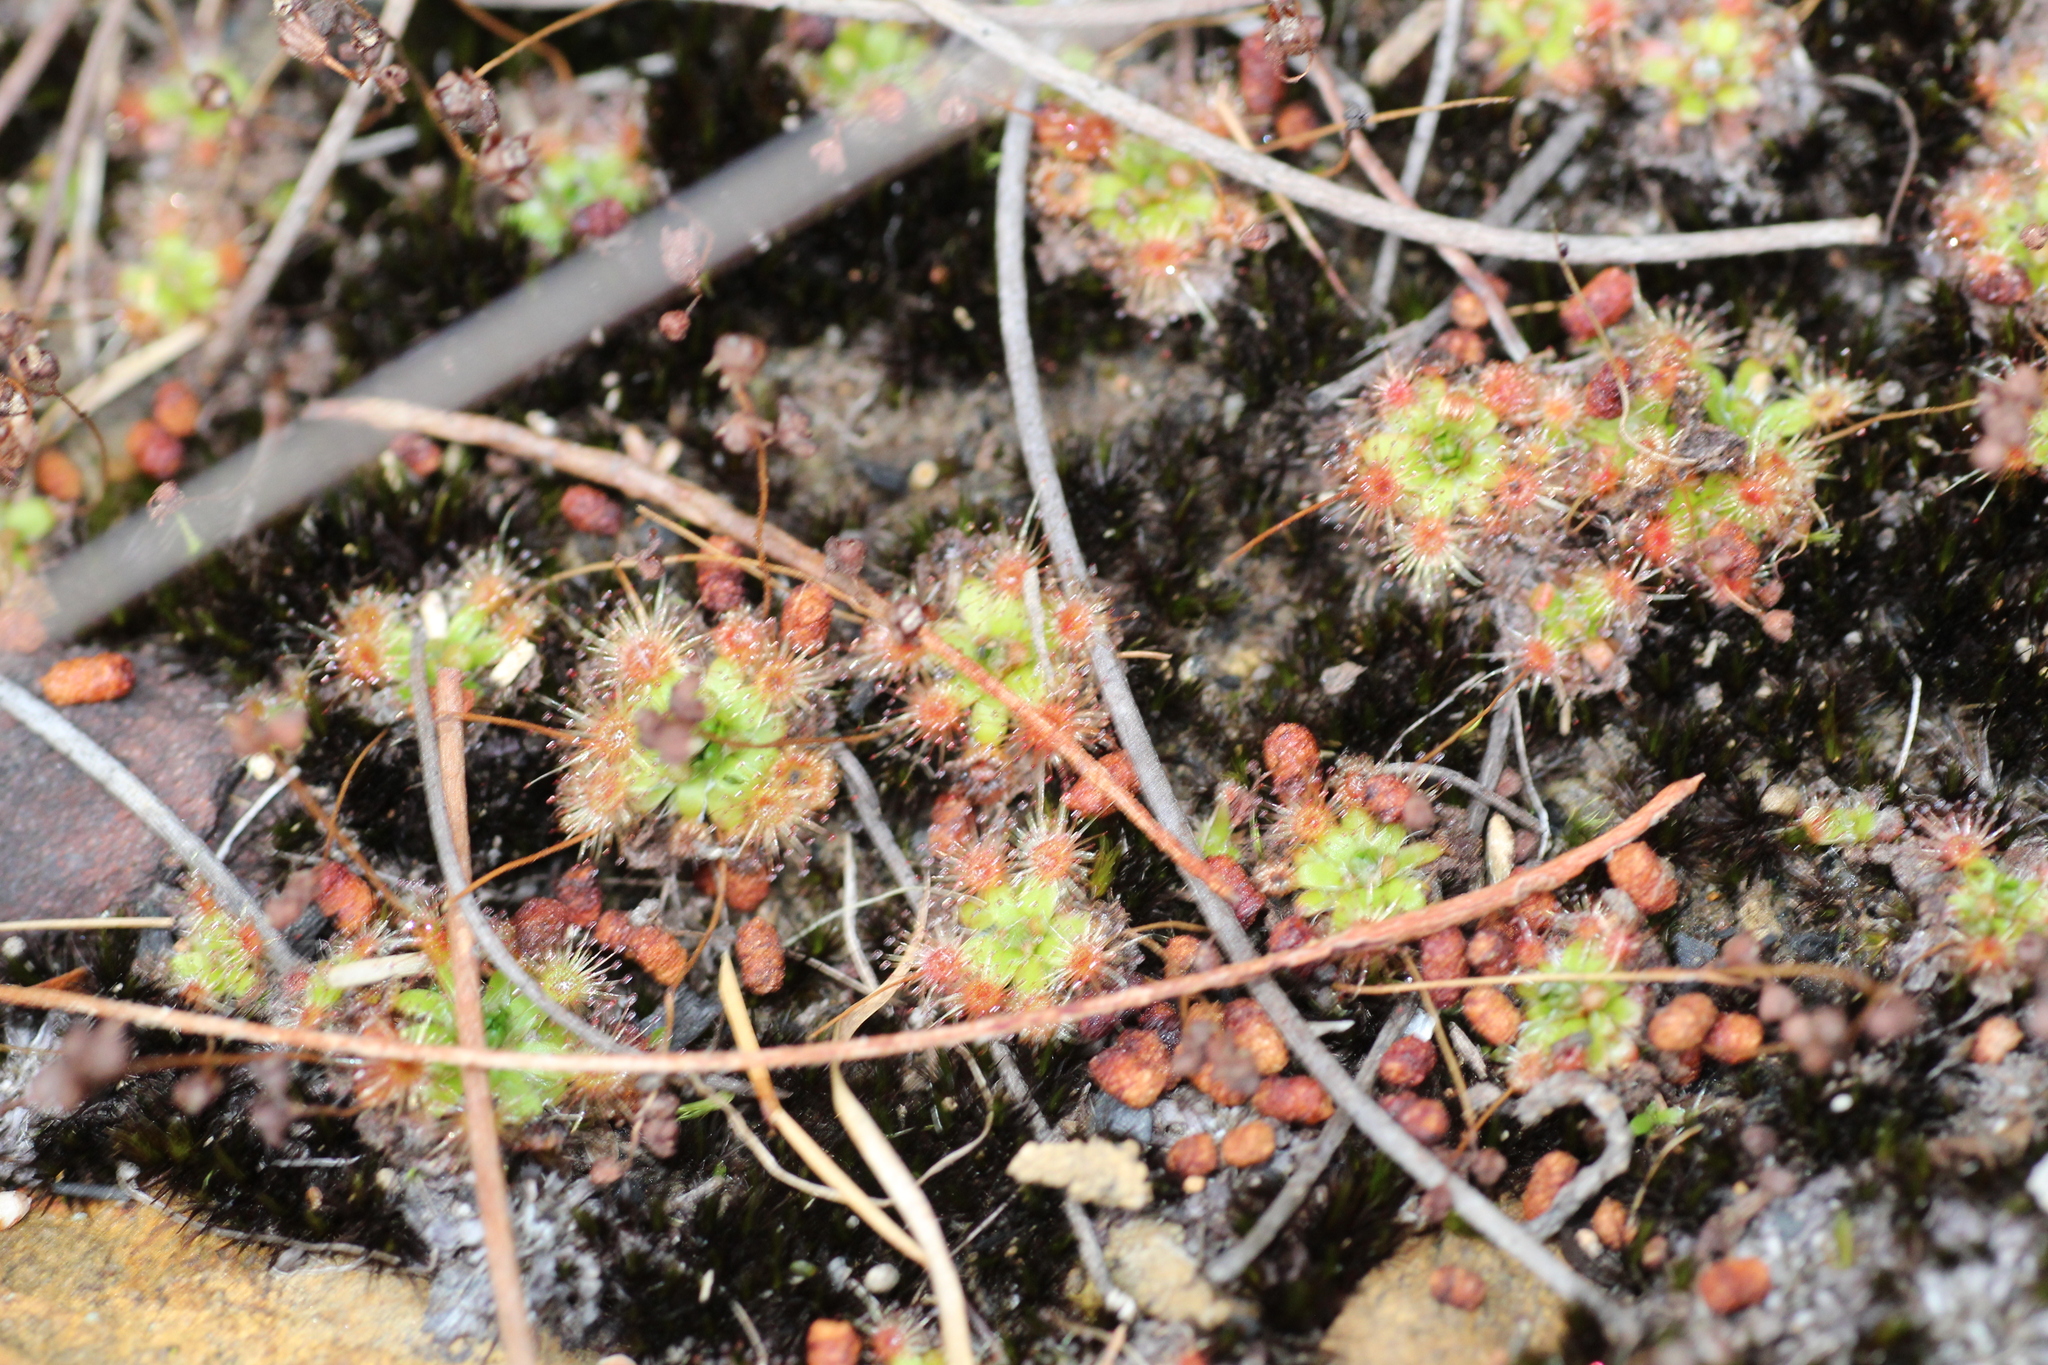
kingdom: Plantae
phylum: Tracheophyta
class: Magnoliopsida
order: Caryophyllales
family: Droseraceae
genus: Drosera
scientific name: Drosera pulchella
